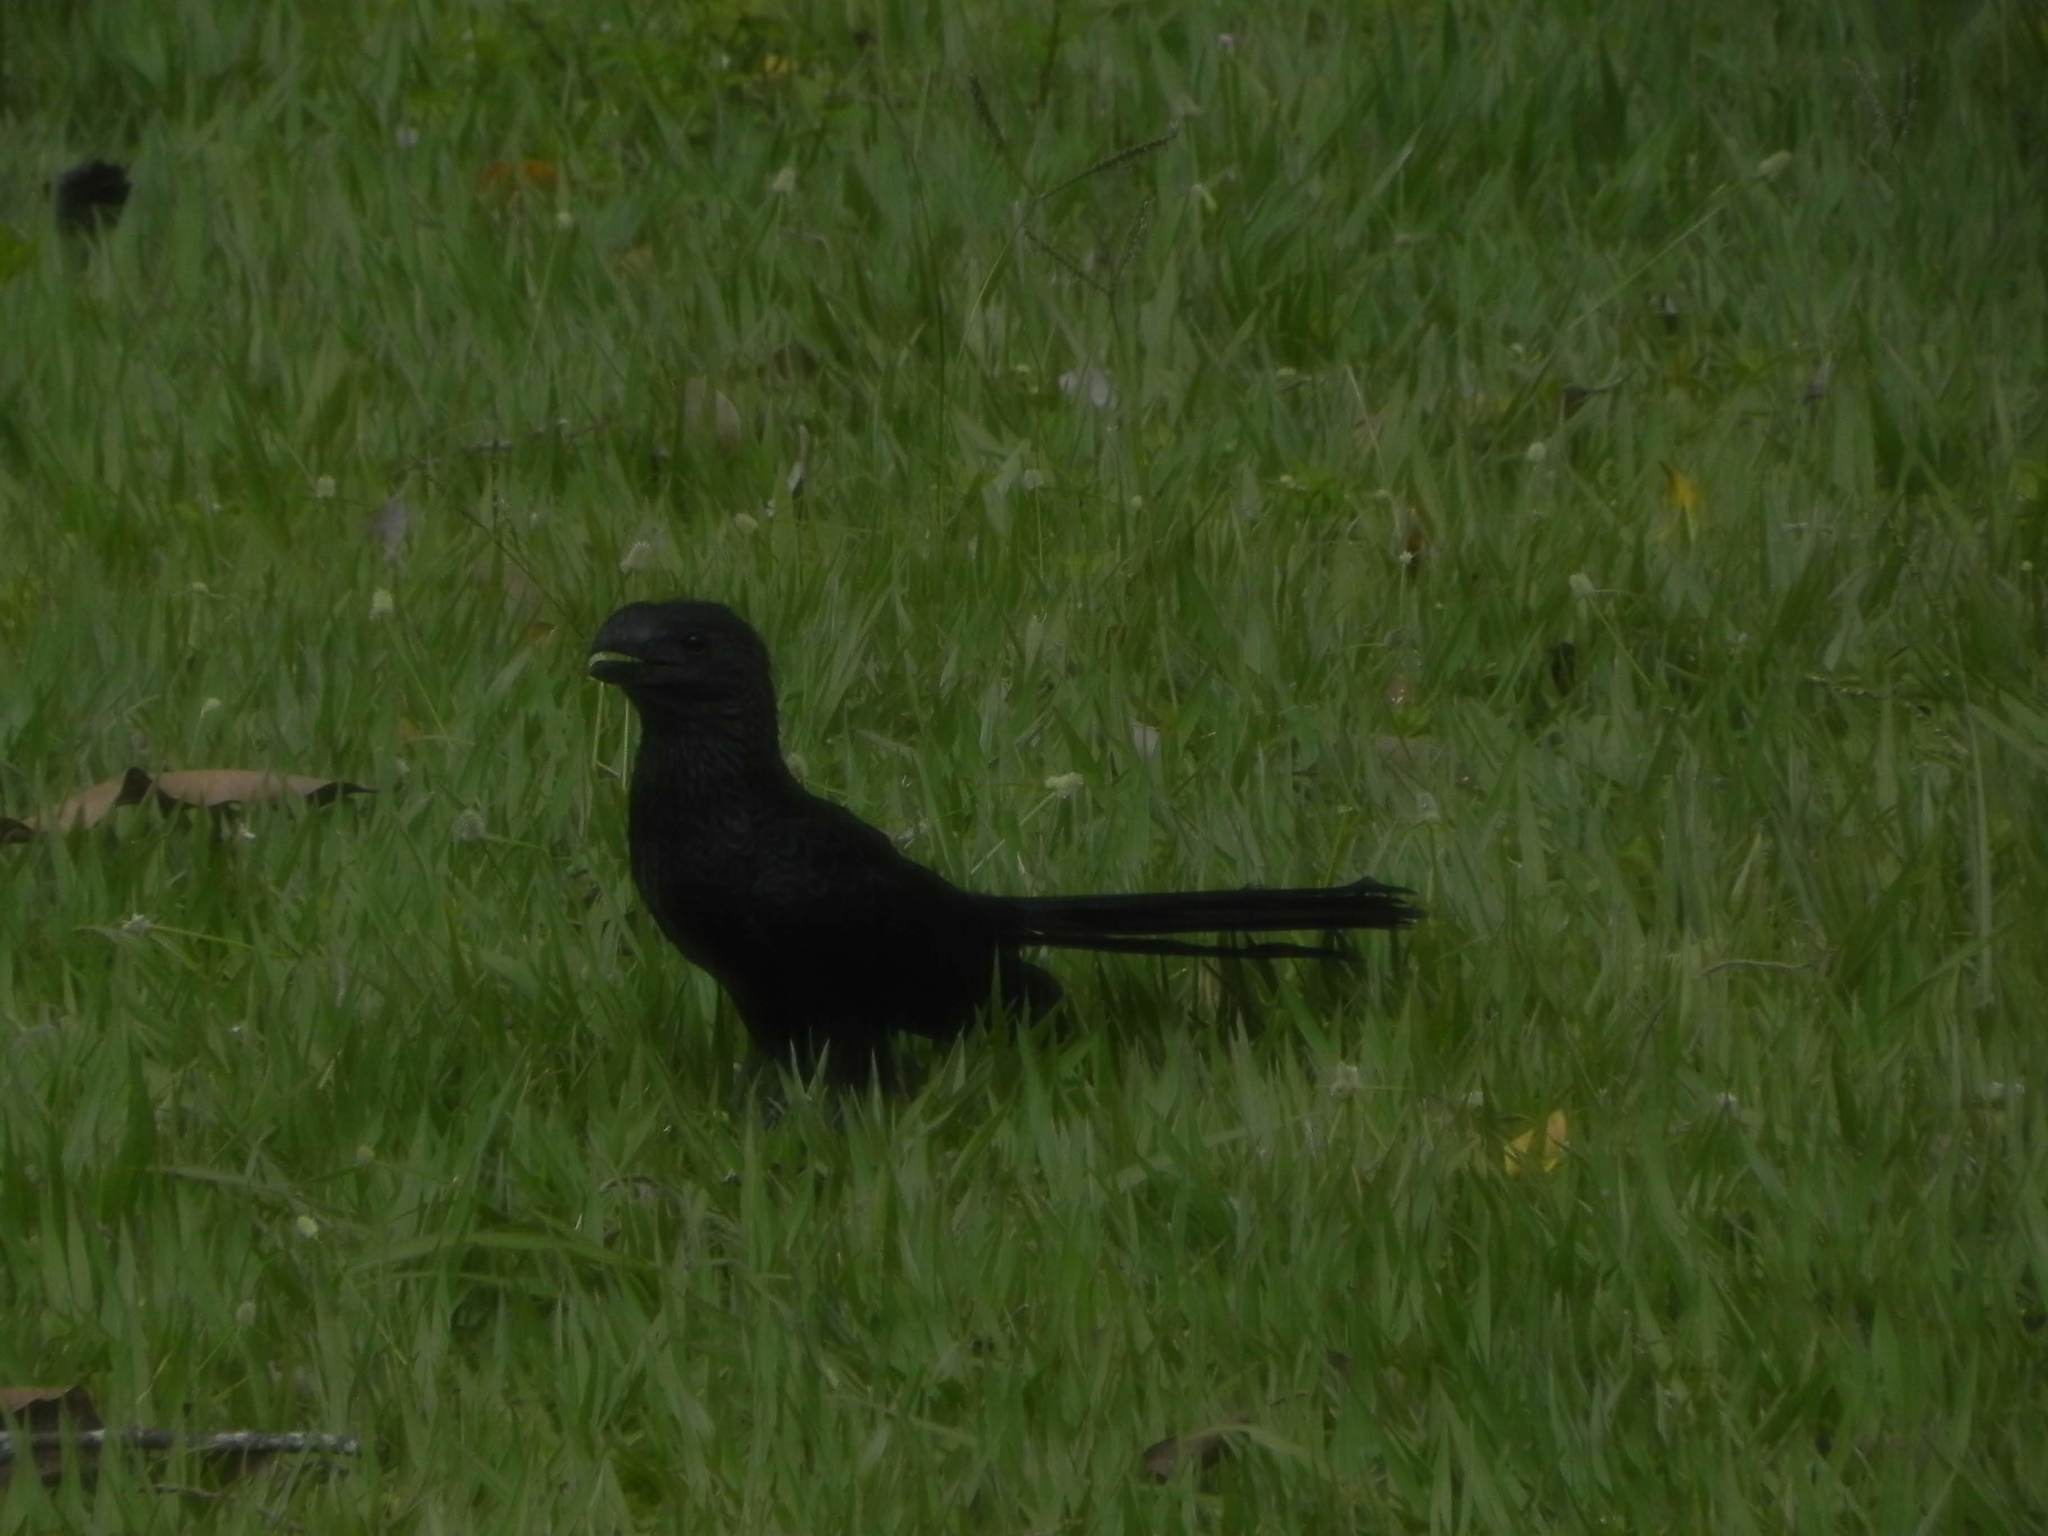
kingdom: Animalia
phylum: Chordata
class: Aves
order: Cuculiformes
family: Cuculidae
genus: Crotophaga
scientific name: Crotophaga ani
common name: Smooth-billed ani
